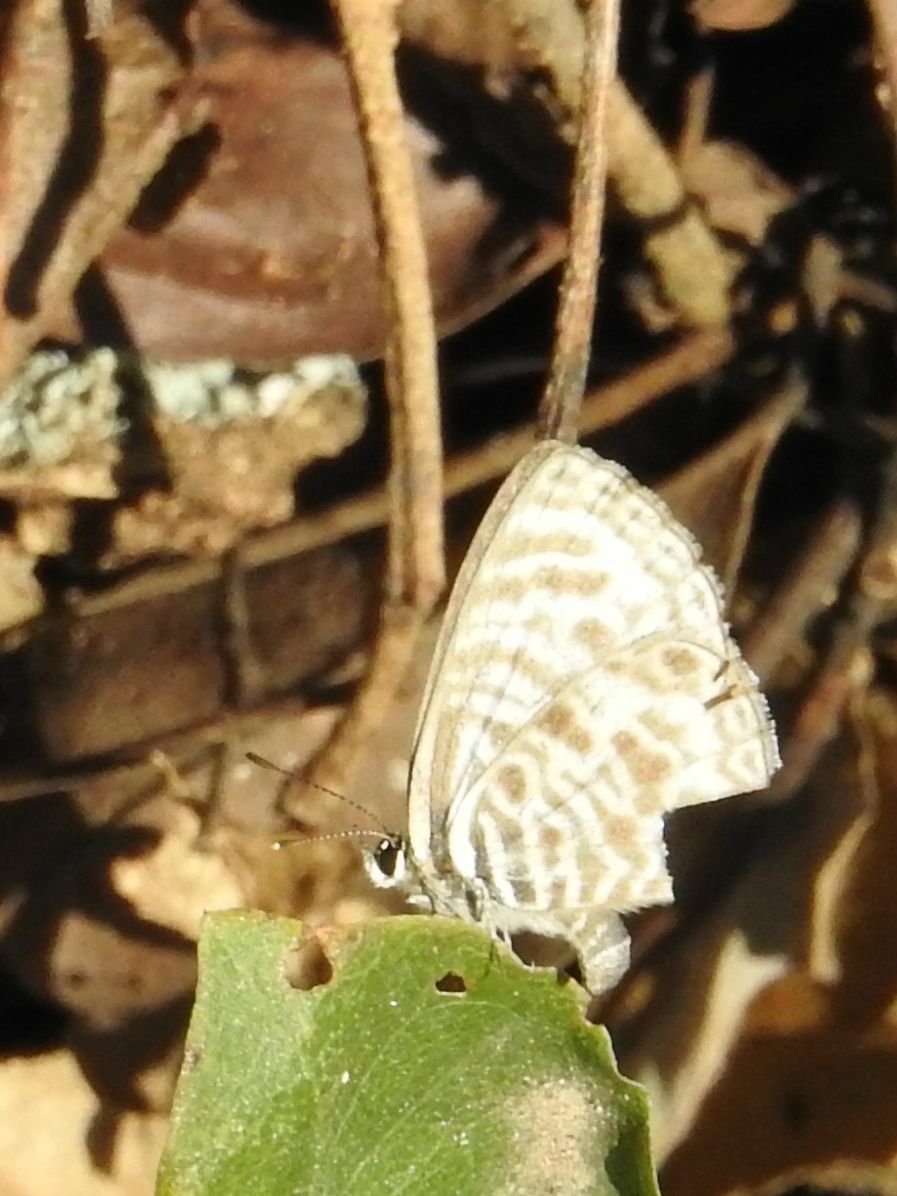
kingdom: Animalia
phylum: Arthropoda
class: Insecta
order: Lepidoptera
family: Lycaenidae
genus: Leptotes
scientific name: Leptotes
